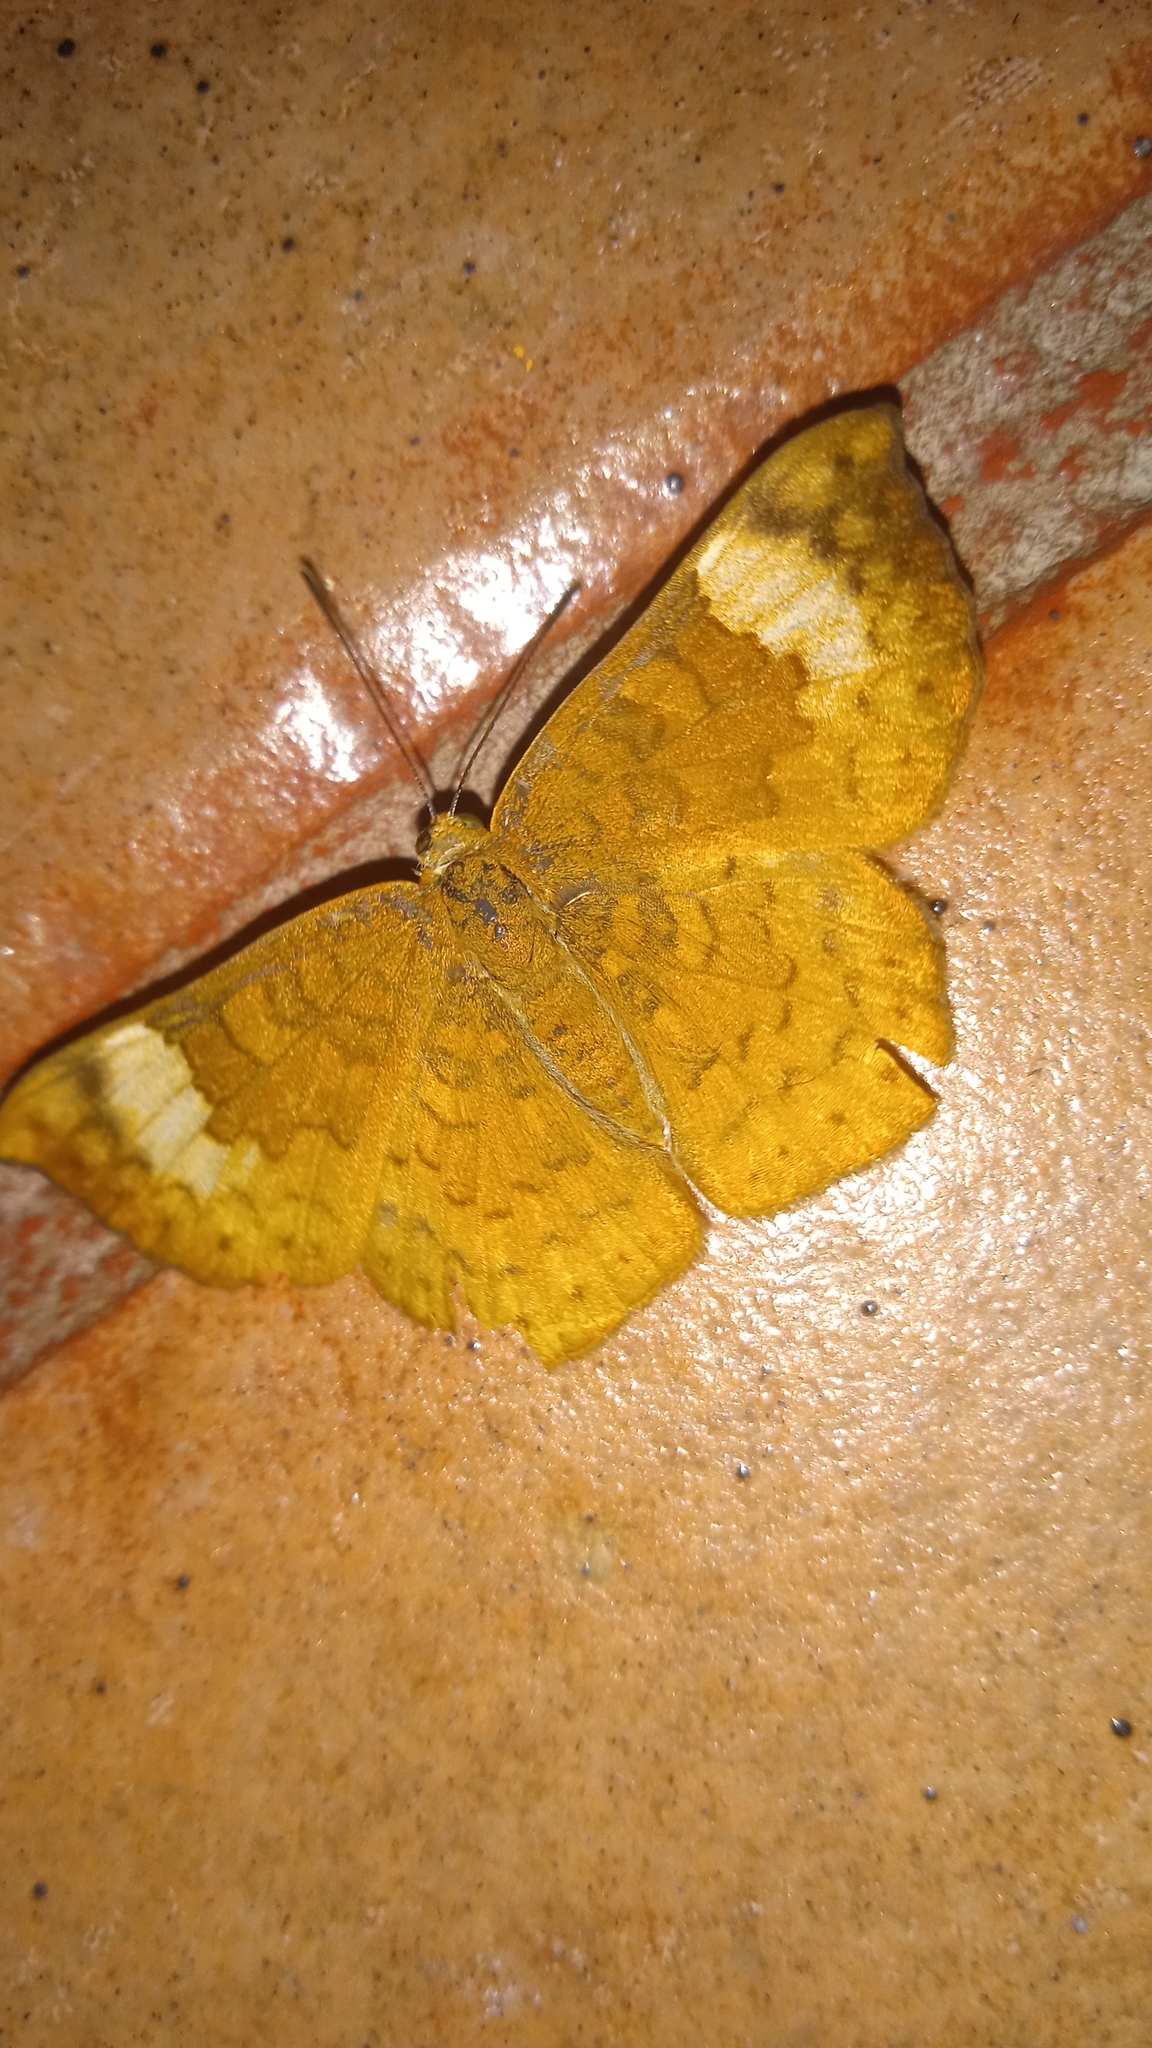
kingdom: Animalia
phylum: Arthropoda
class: Insecta
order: Lepidoptera
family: Lycaenidae
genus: Emesis
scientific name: Emesis tenedia
